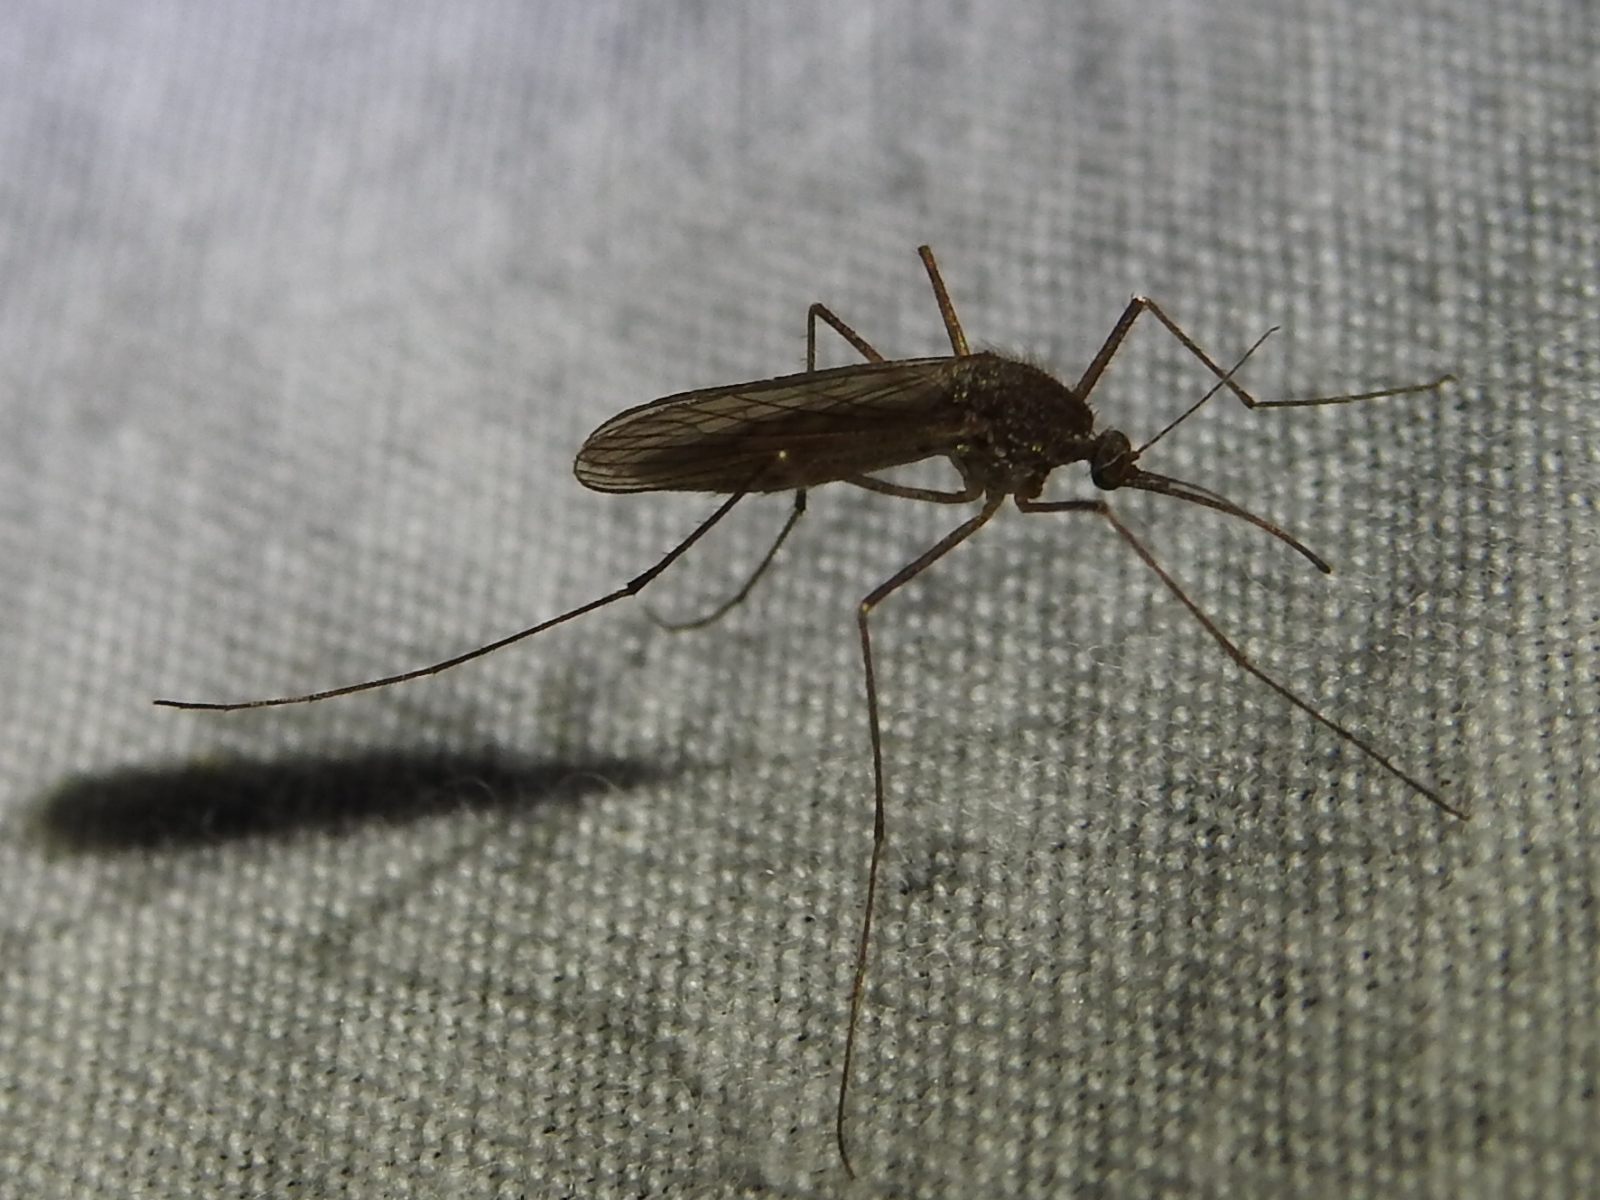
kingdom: Animalia
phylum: Arthropoda
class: Insecta
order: Diptera
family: Culicidae
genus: Culiseta
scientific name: Culiseta inornata
